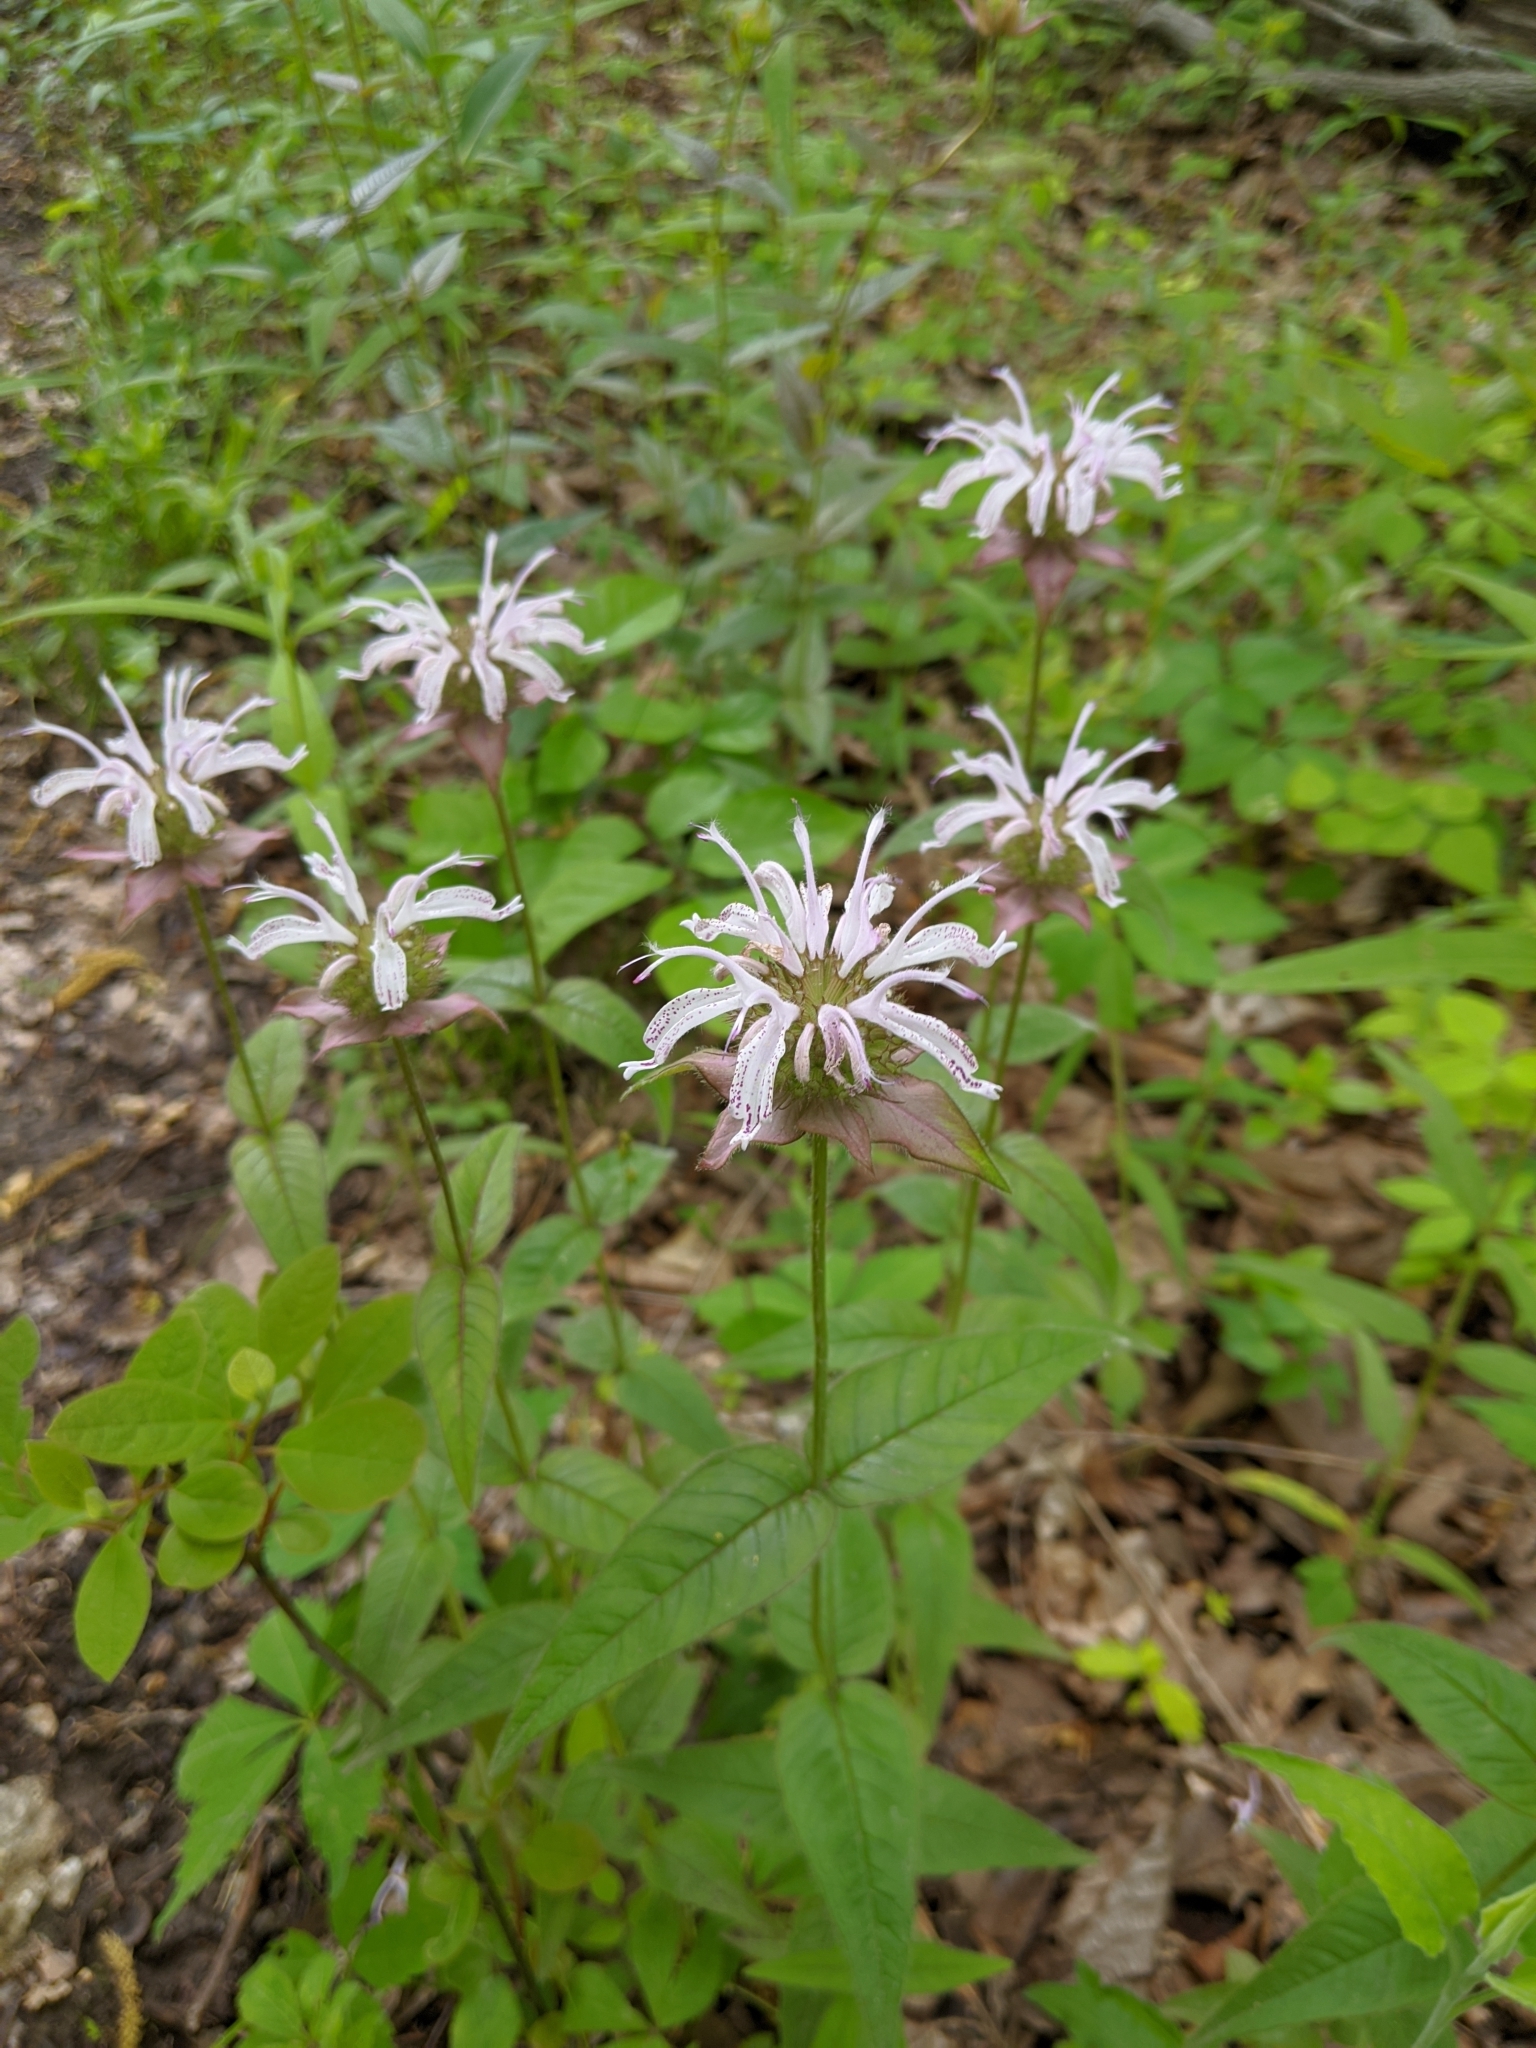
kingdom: Plantae
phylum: Tracheophyta
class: Magnoliopsida
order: Lamiales
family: Lamiaceae
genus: Monarda
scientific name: Monarda bradburiana
